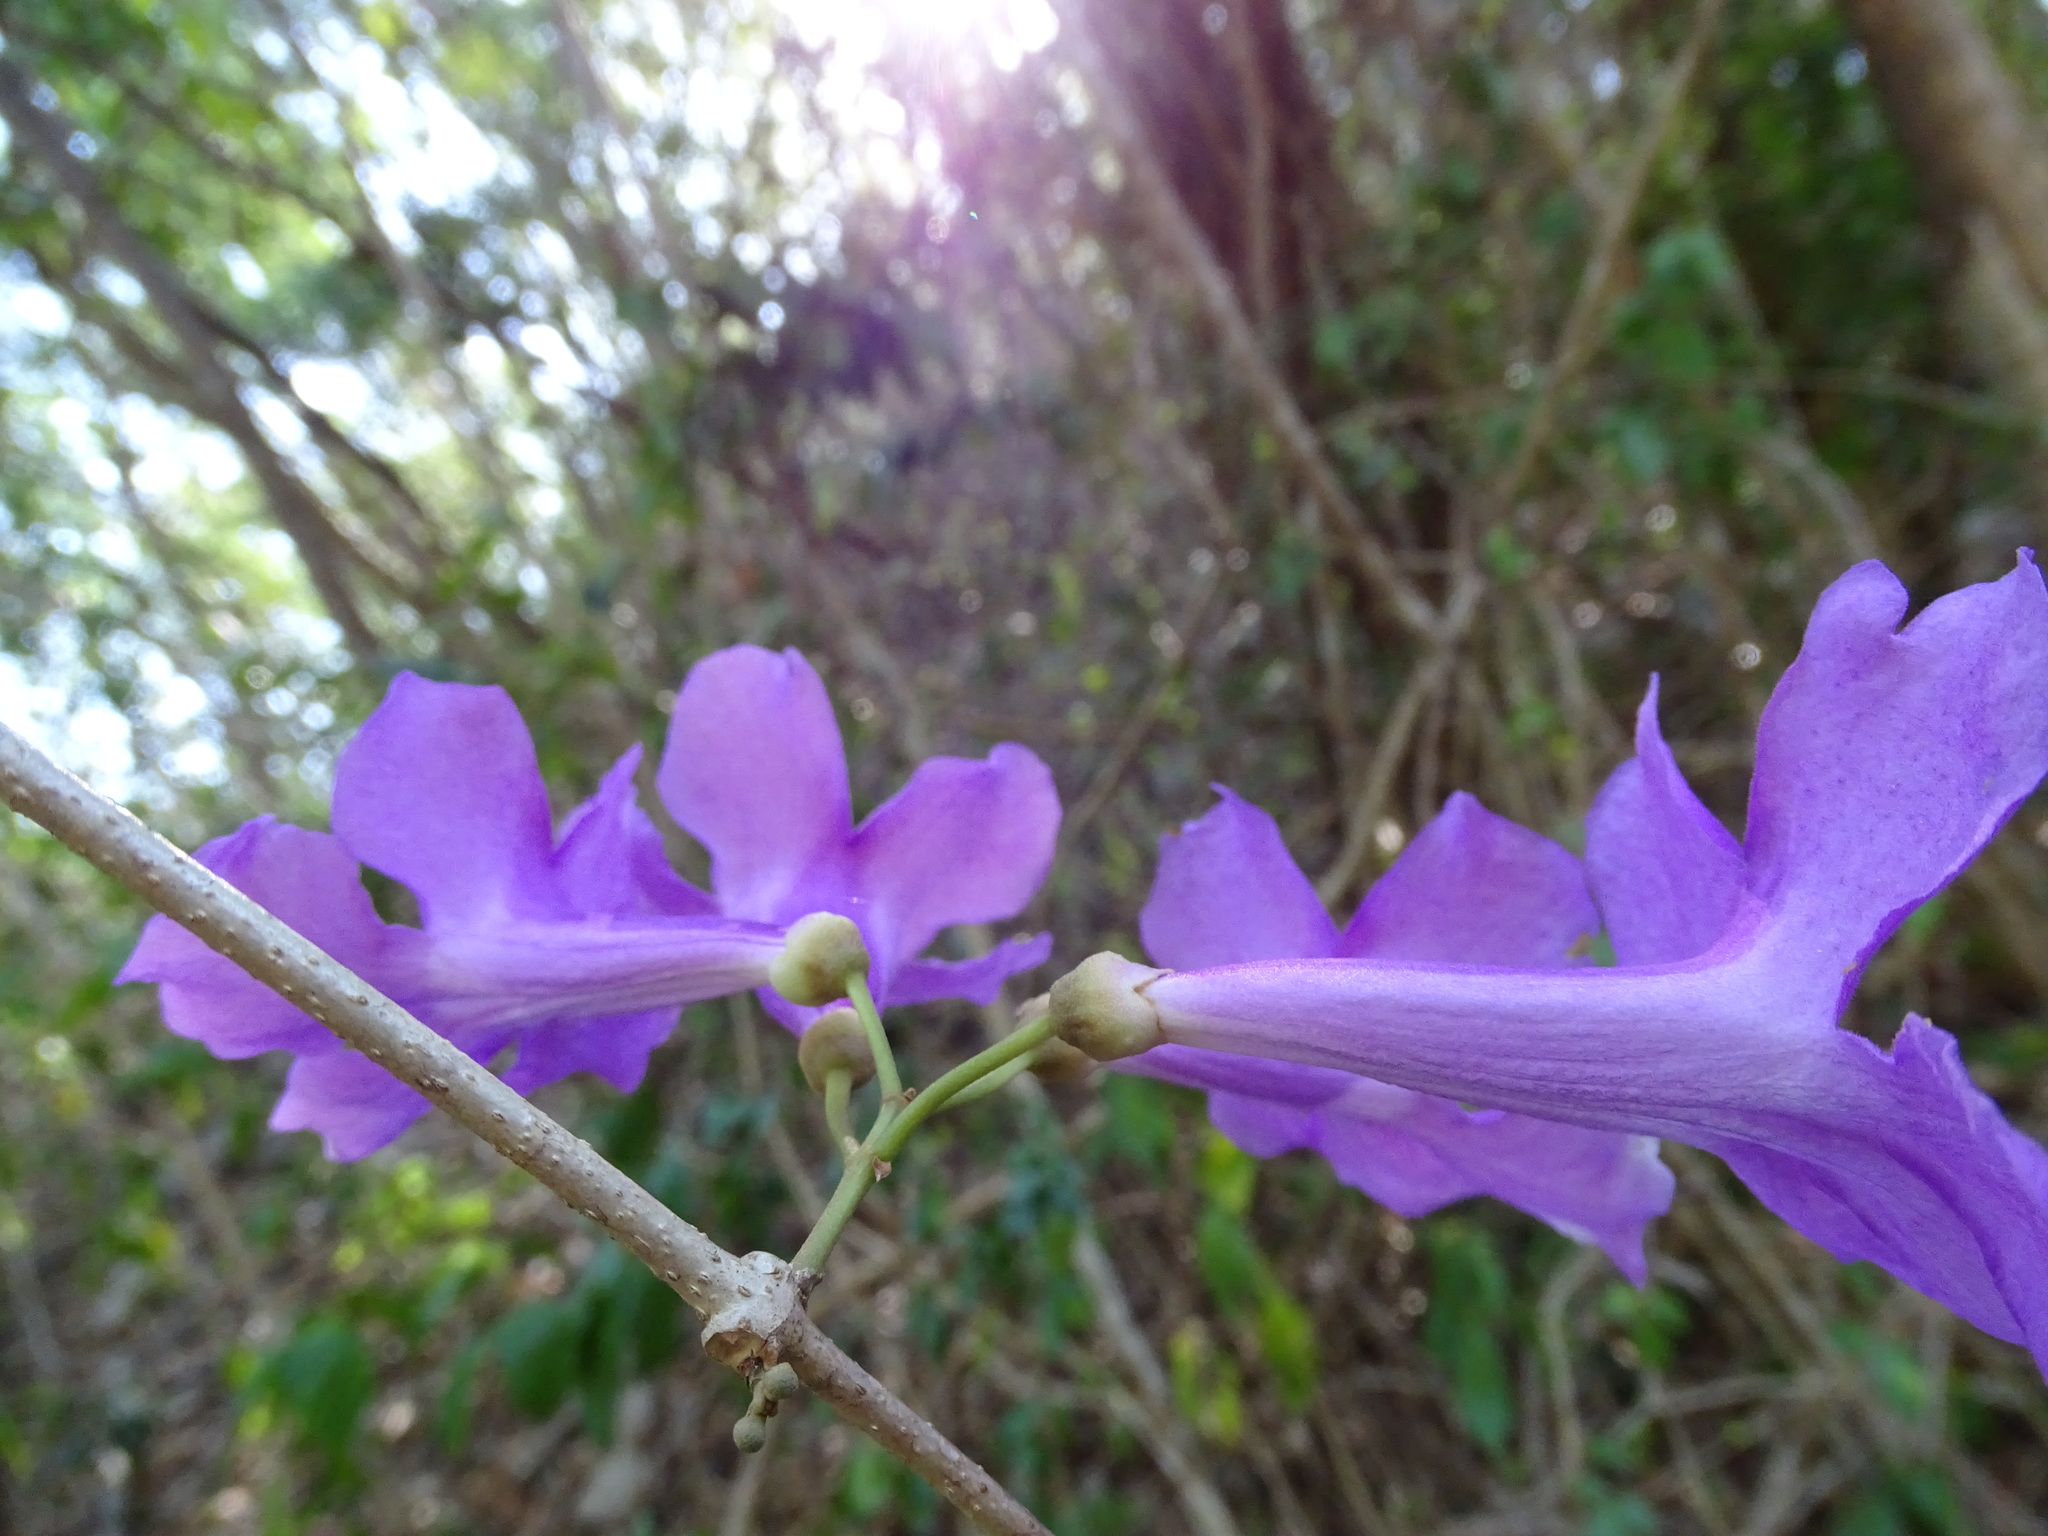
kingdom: Plantae
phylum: Tracheophyta
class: Magnoliopsida
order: Lamiales
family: Bignoniaceae
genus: Bignonia
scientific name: Bignonia neoheterophylla
